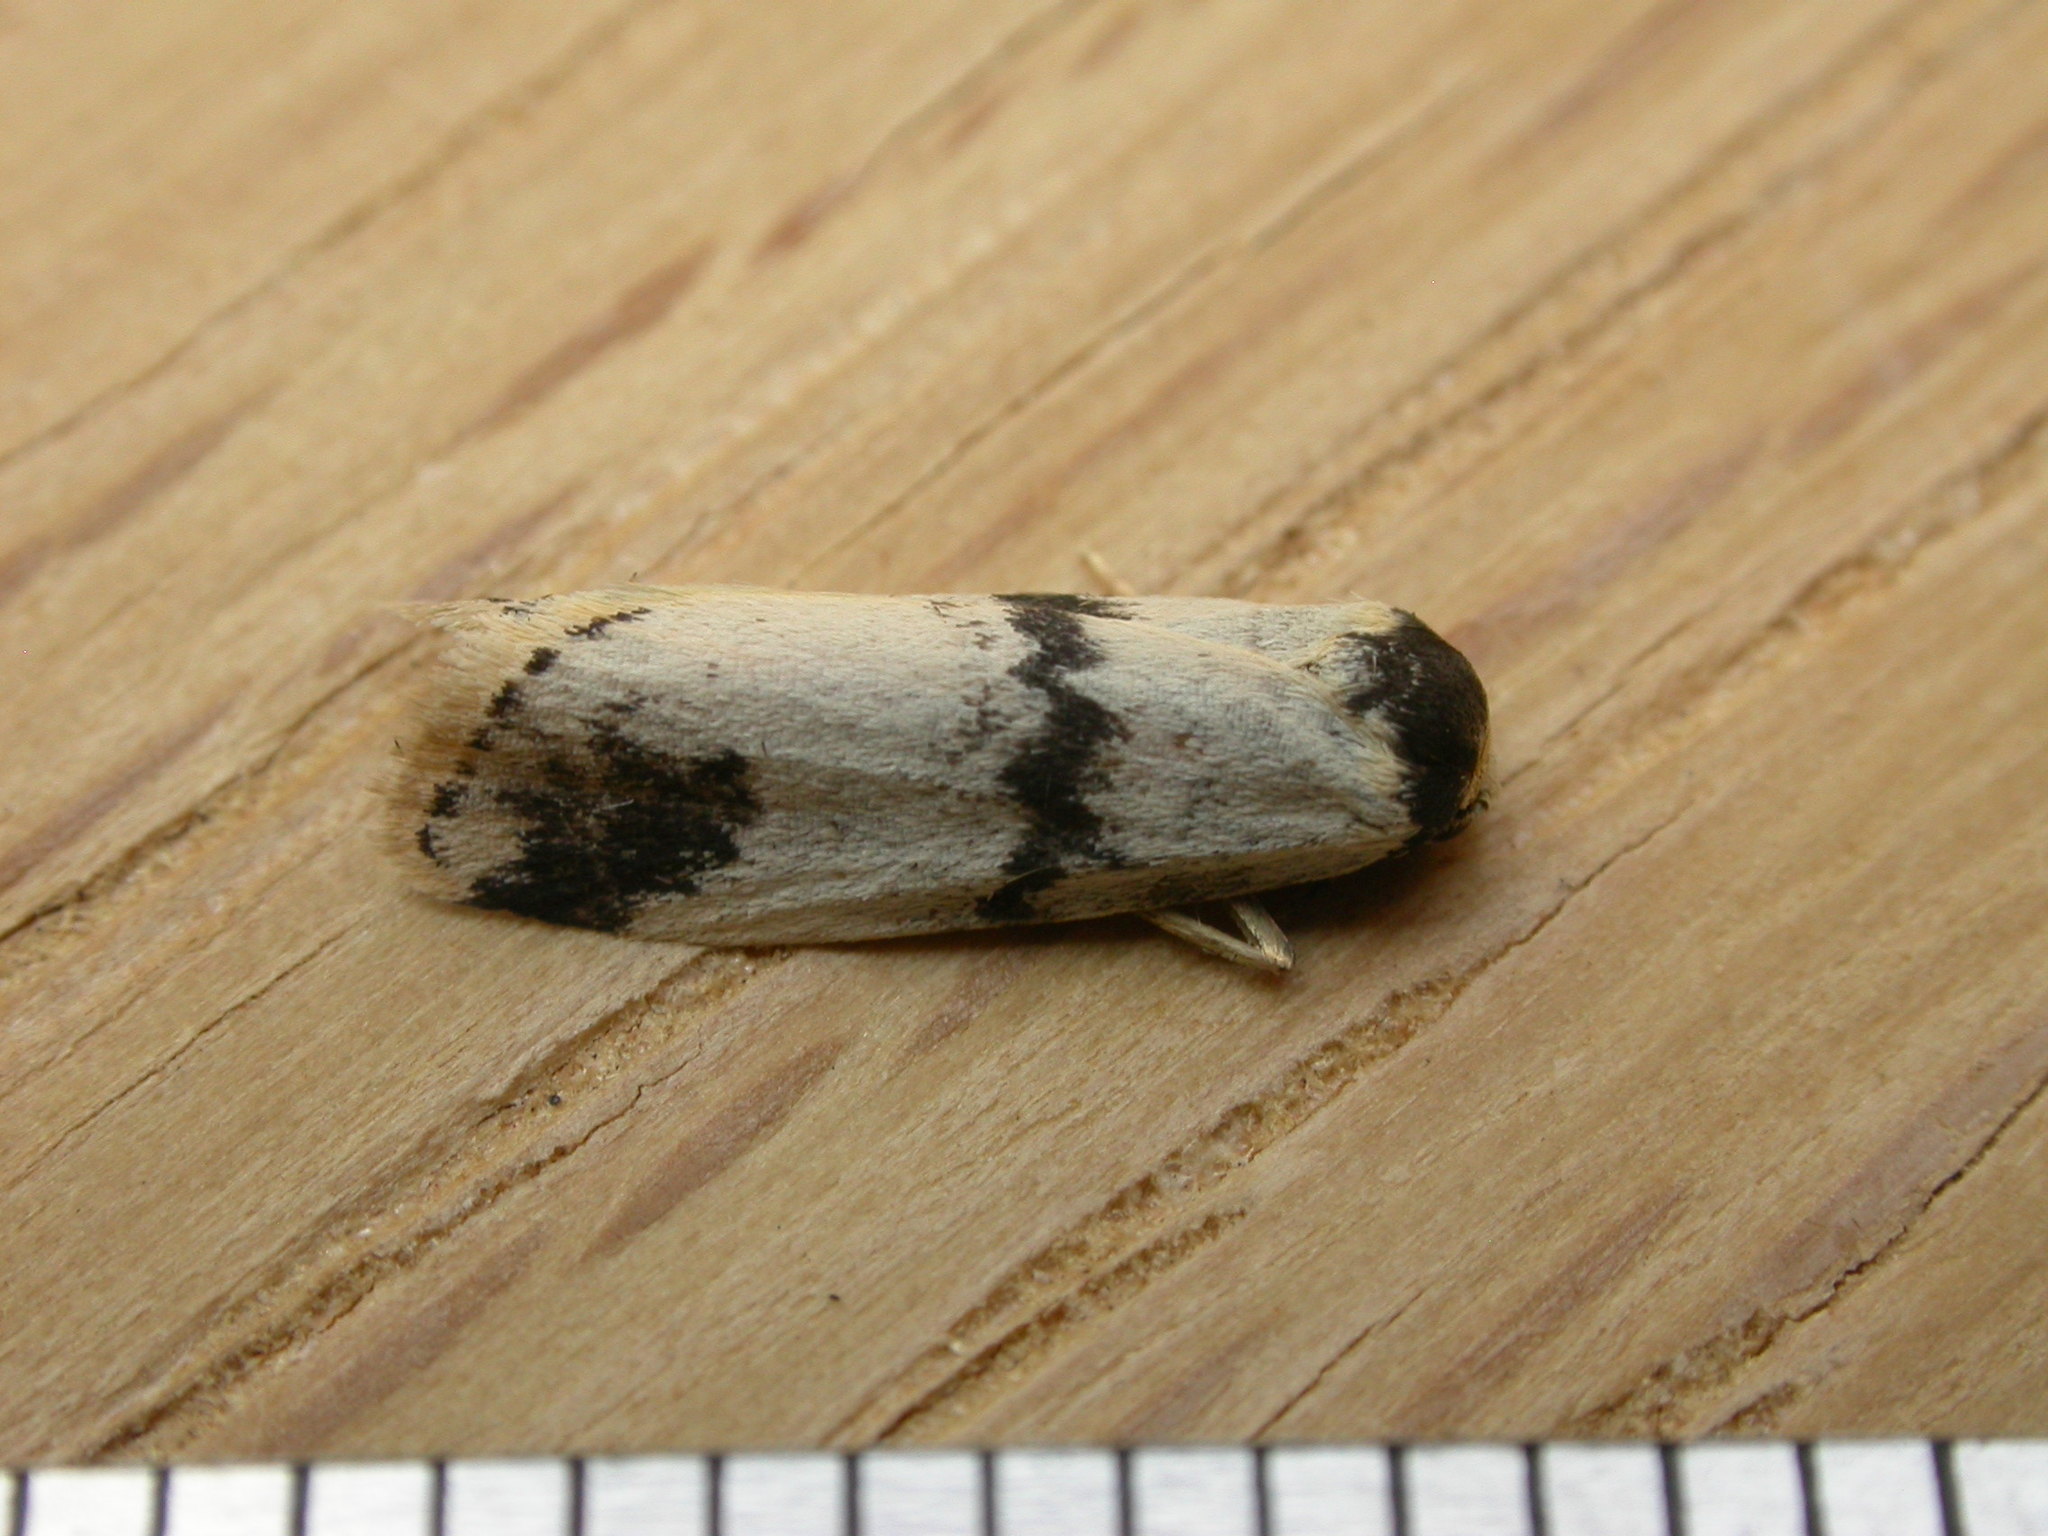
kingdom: Animalia
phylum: Arthropoda
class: Insecta
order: Lepidoptera
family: Erebidae
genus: Thallarcha
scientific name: Thallarcha sparsana
